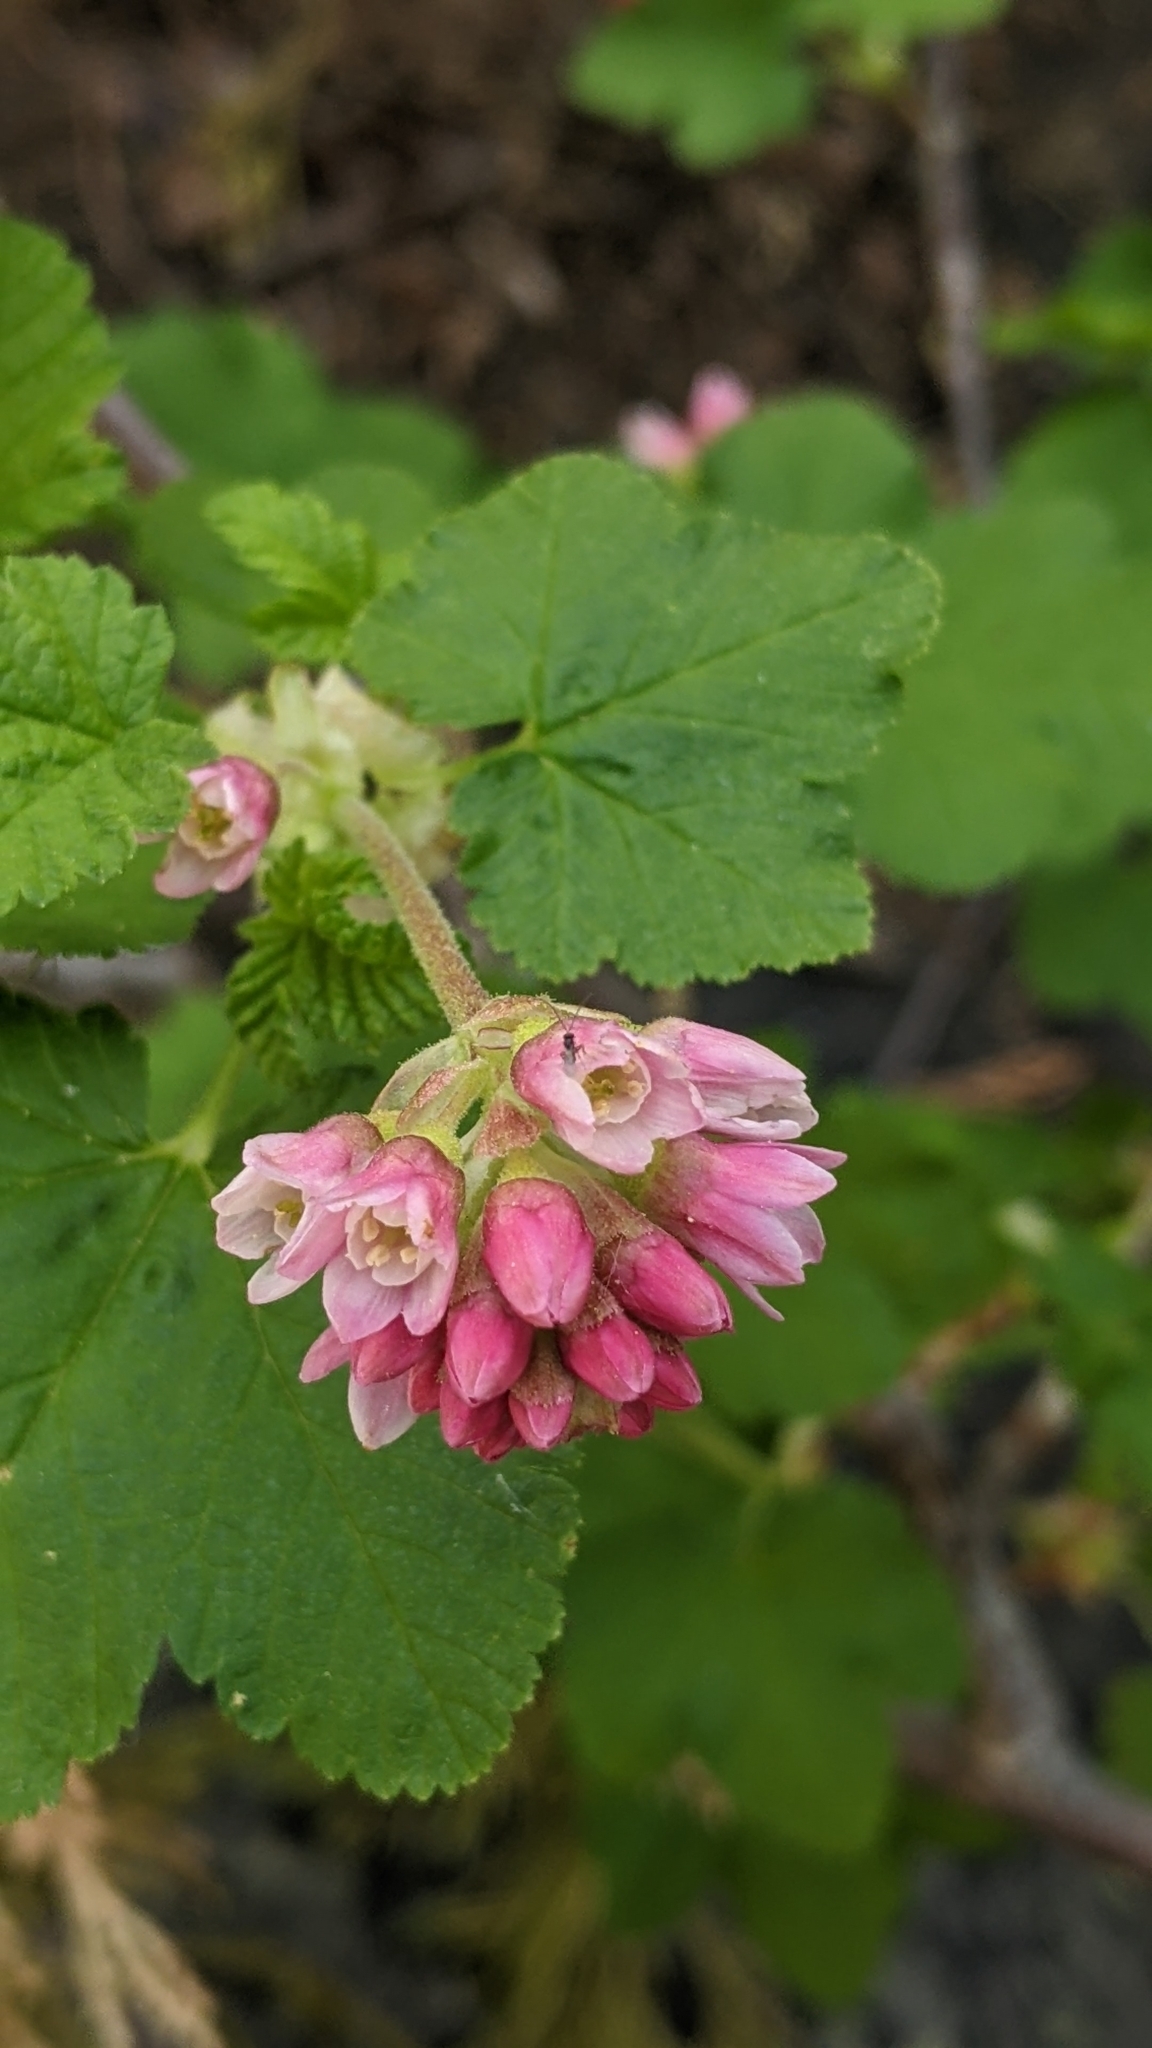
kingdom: Plantae
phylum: Tracheophyta
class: Magnoliopsida
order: Saxifragales
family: Grossulariaceae
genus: Ribes
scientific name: Ribes nevadense
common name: Mountain pink currant
